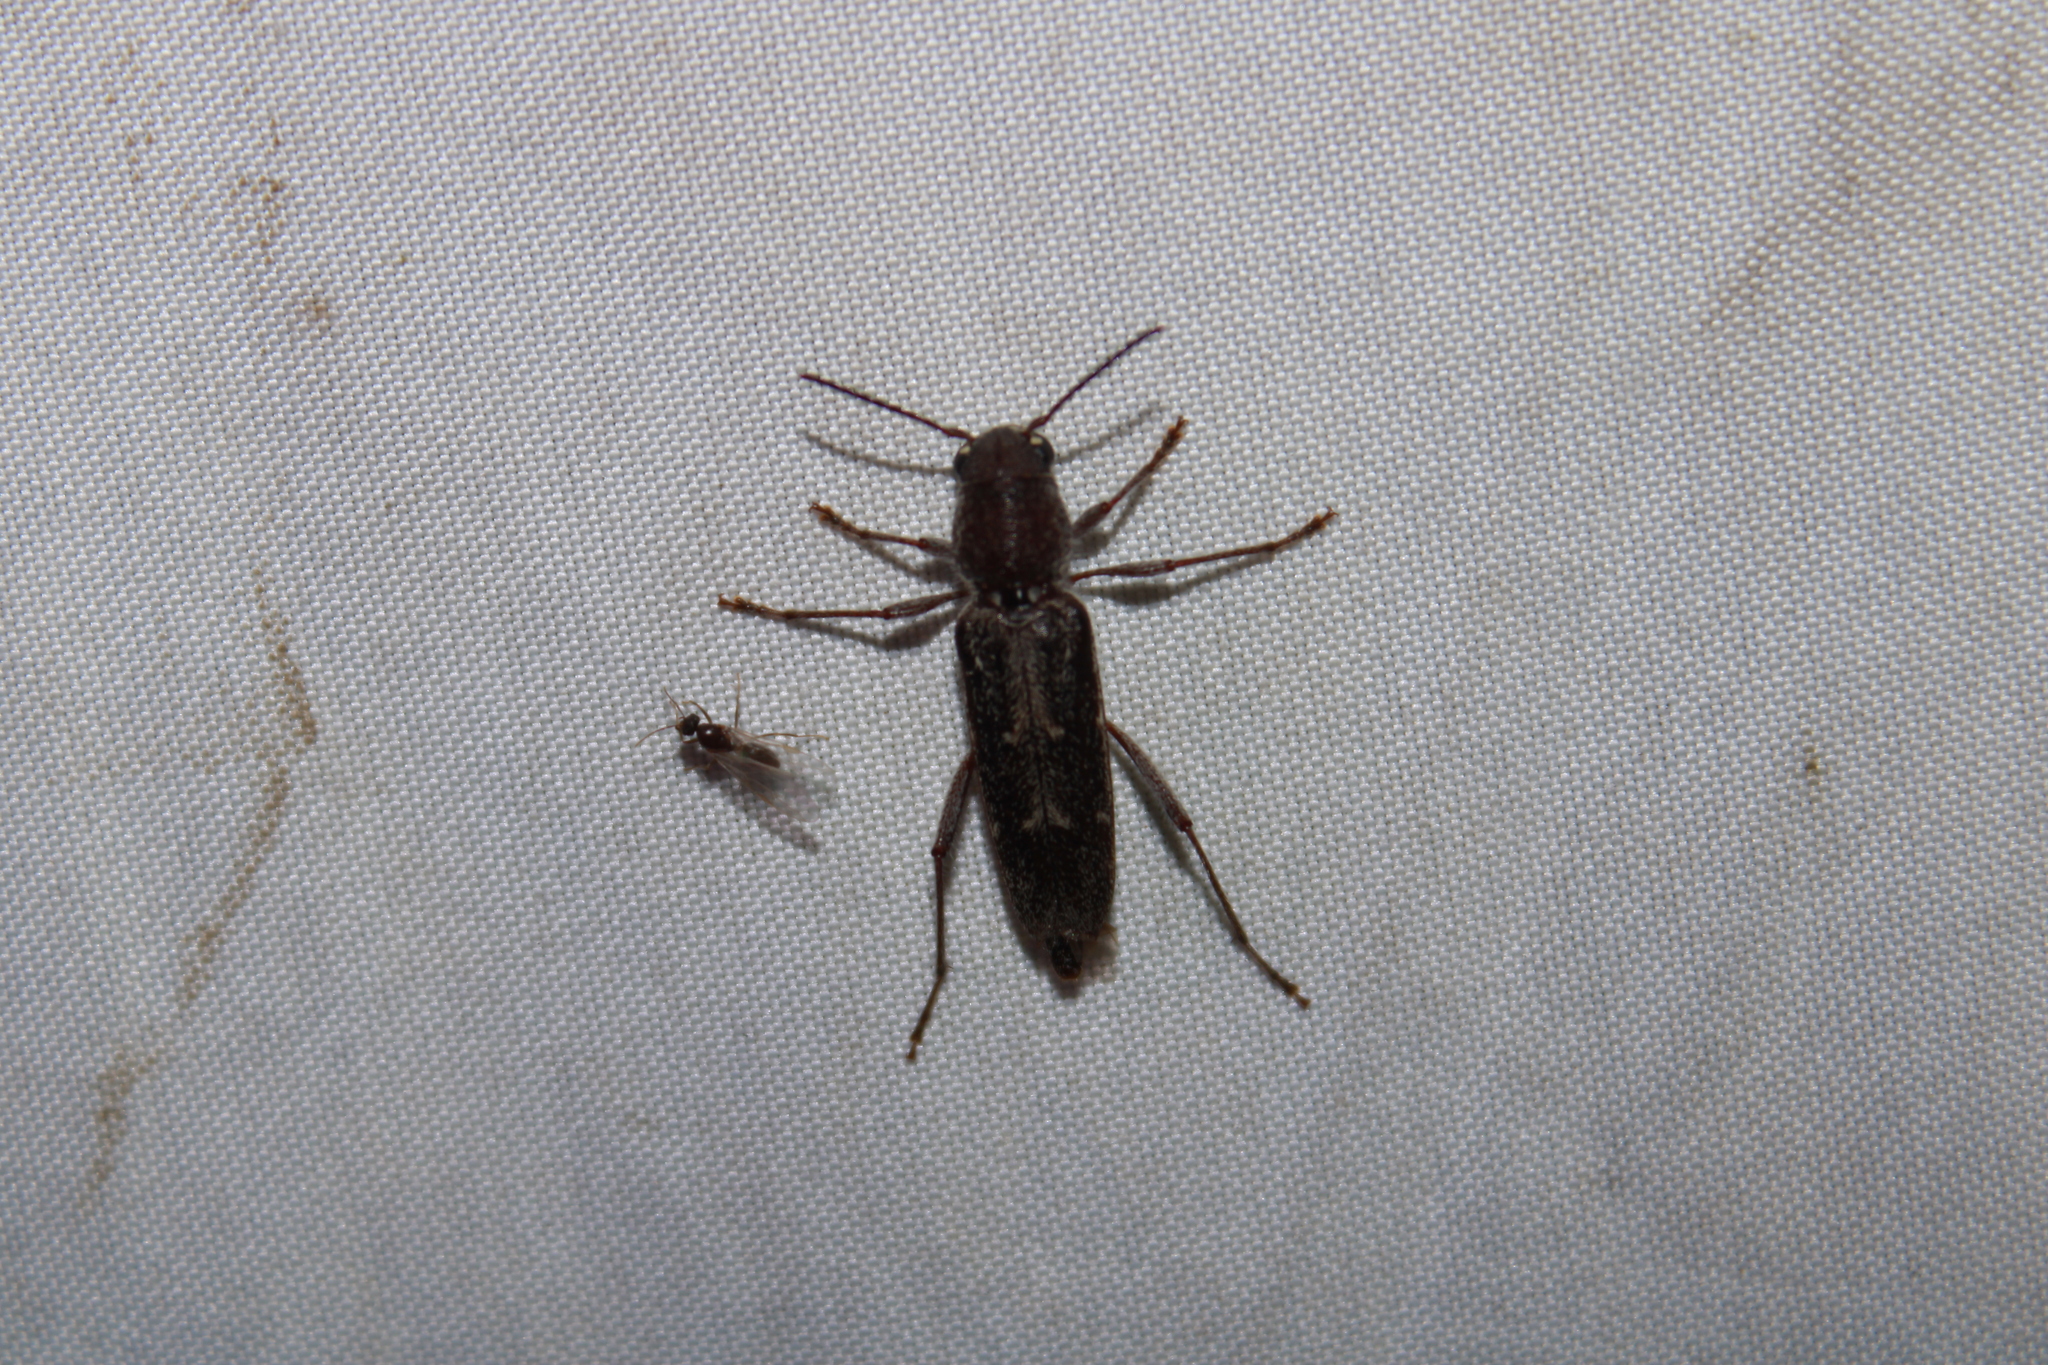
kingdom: Animalia
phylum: Arthropoda
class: Insecta
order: Coleoptera
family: Cerambycidae
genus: Xylotrechus
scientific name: Xylotrechus sagittatus
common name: Arrowhead borer
